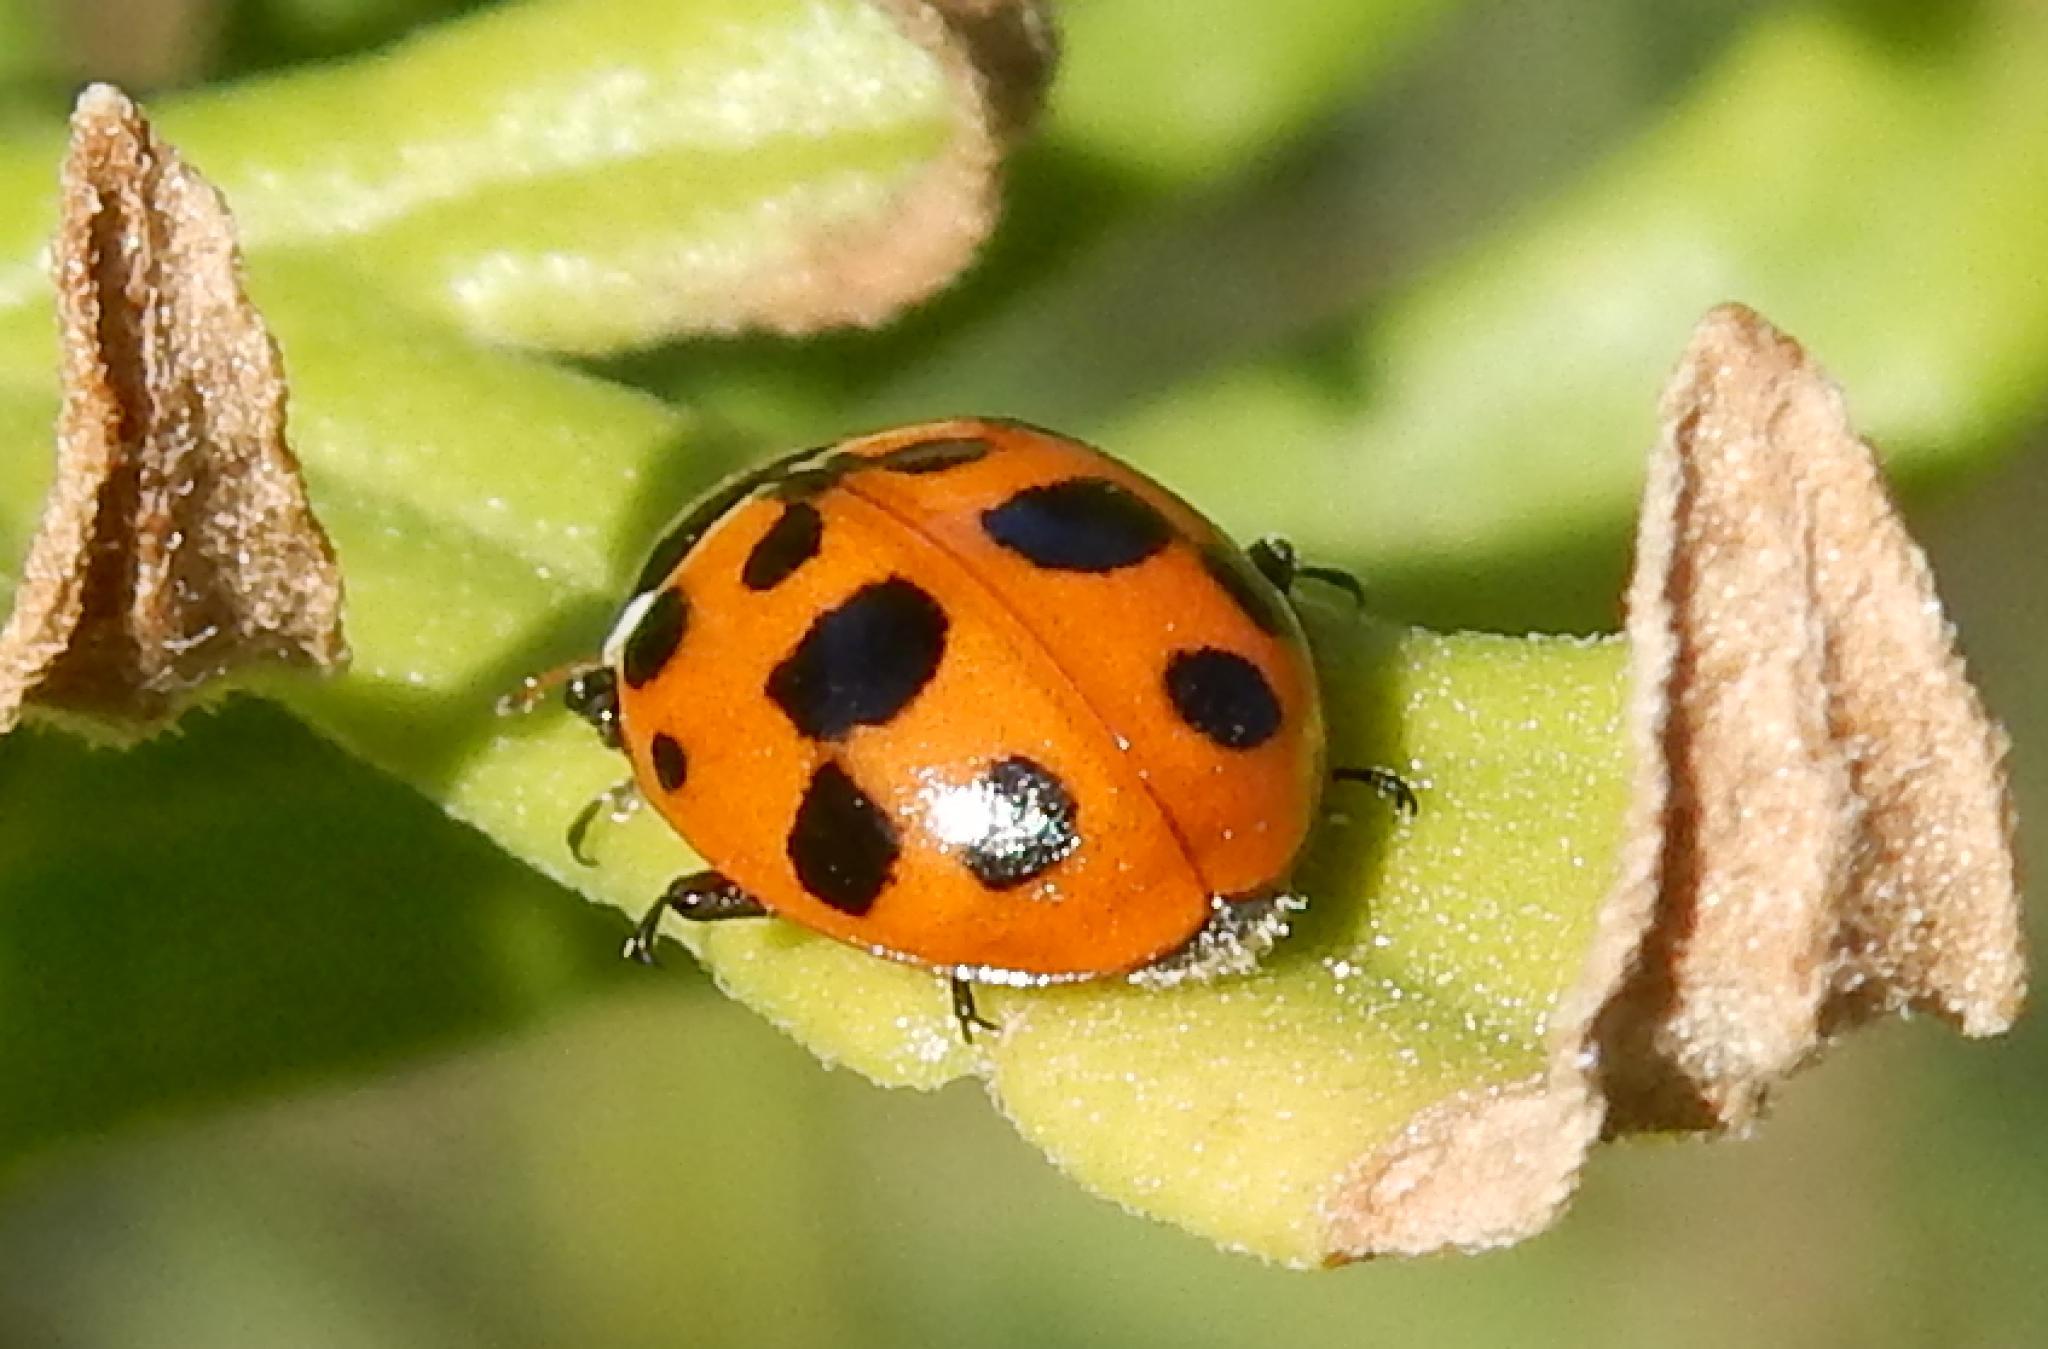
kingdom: Animalia
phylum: Arthropoda
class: Insecta
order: Coleoptera
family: Coccinellidae
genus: Hippodamia
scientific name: Hippodamia variegata
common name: Ladybird beetle
